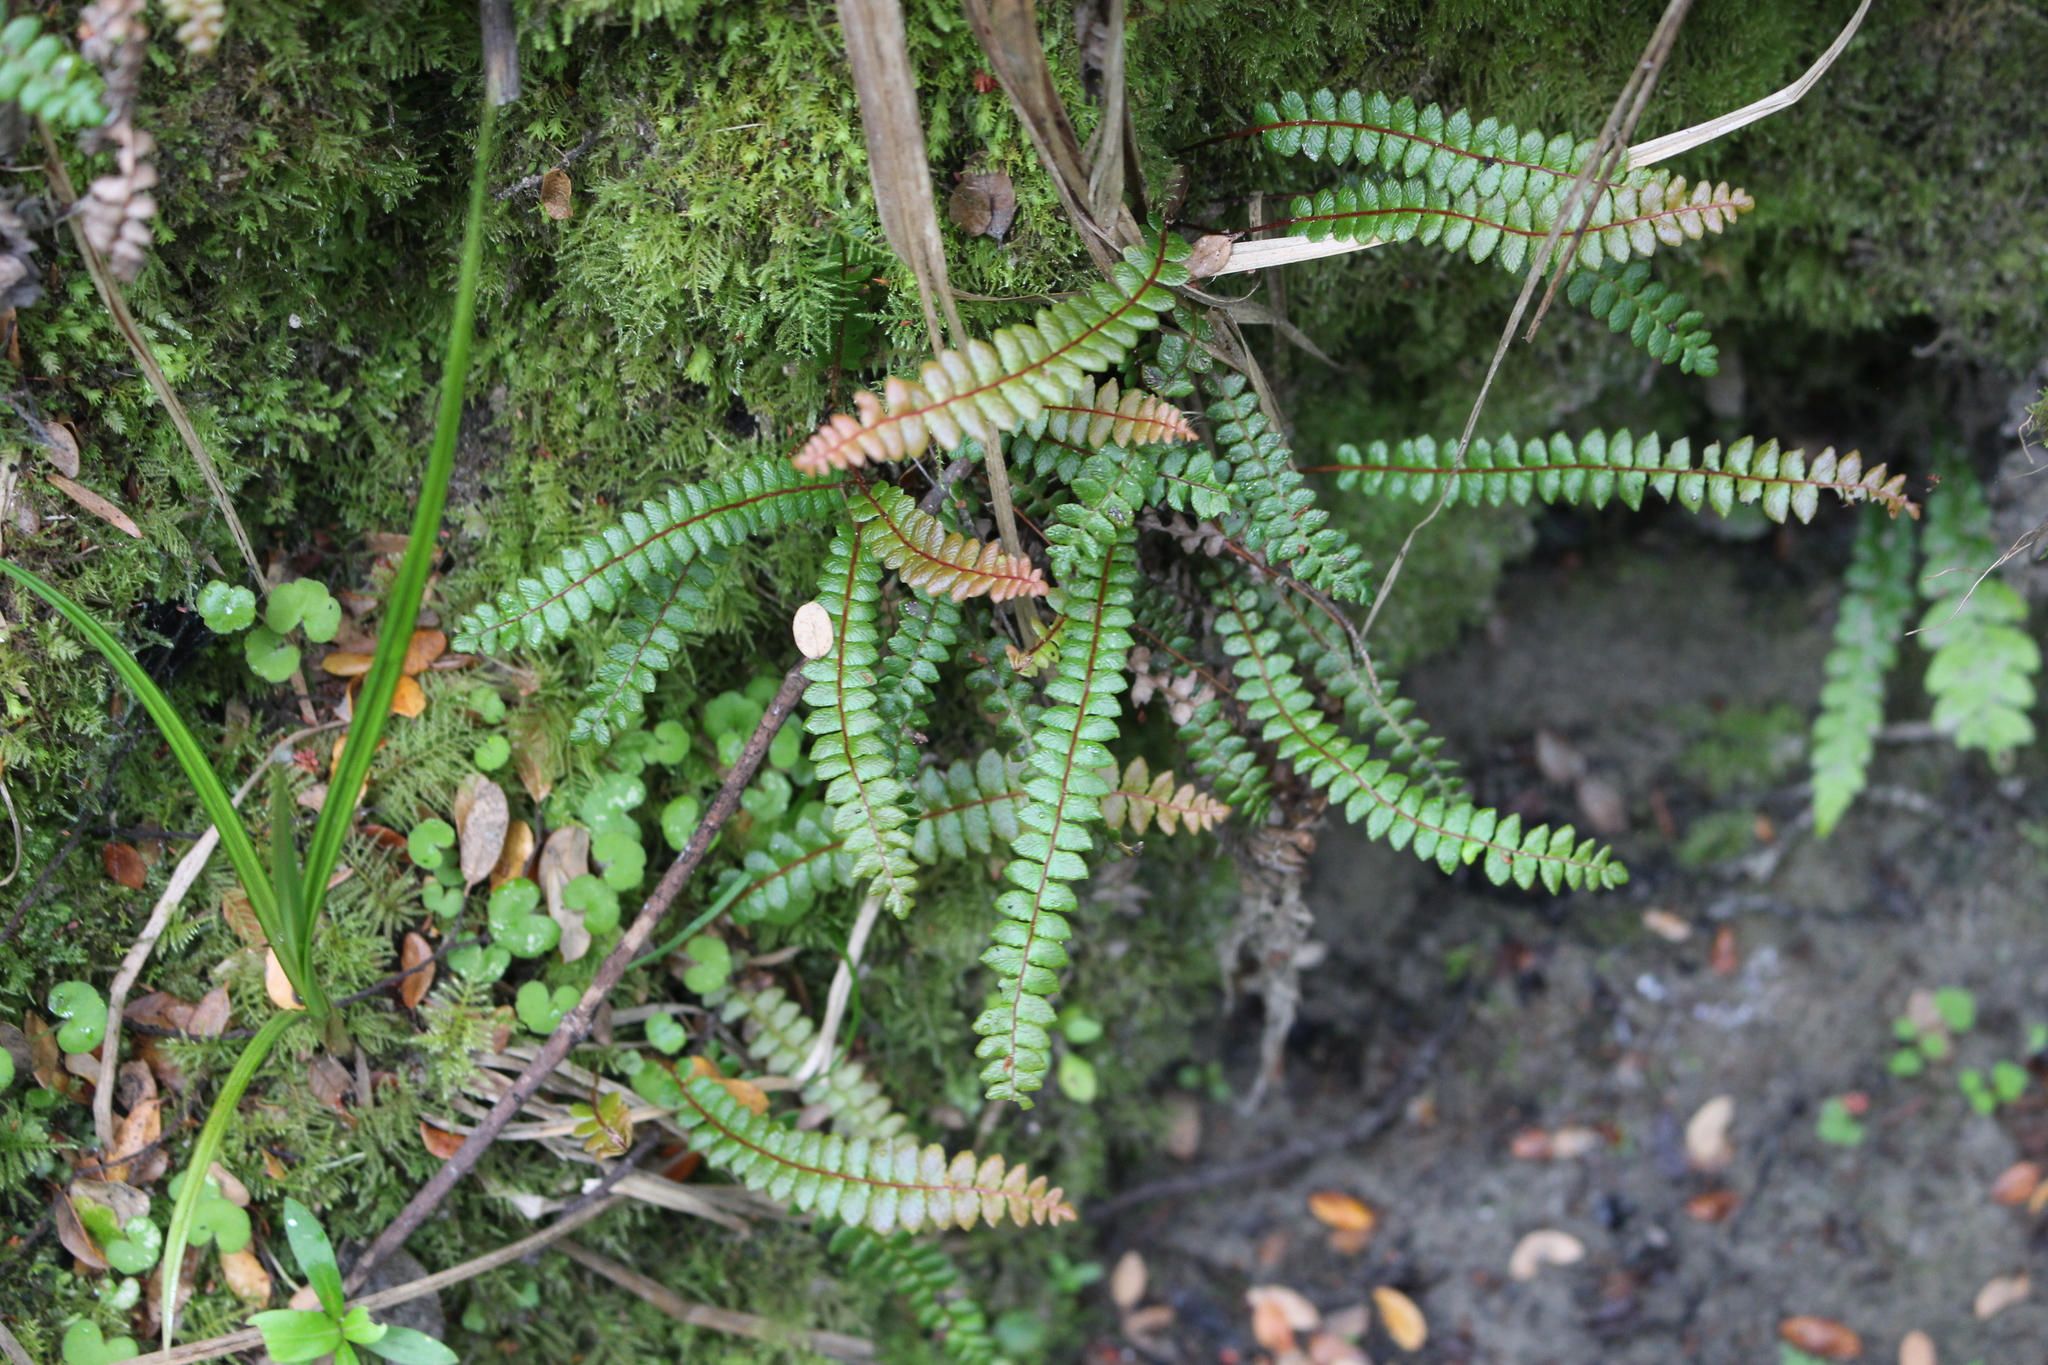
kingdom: Plantae
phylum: Tracheophyta
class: Polypodiopsida
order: Polypodiales
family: Blechnaceae
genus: Austroblechnum
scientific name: Austroblechnum penna-marina
